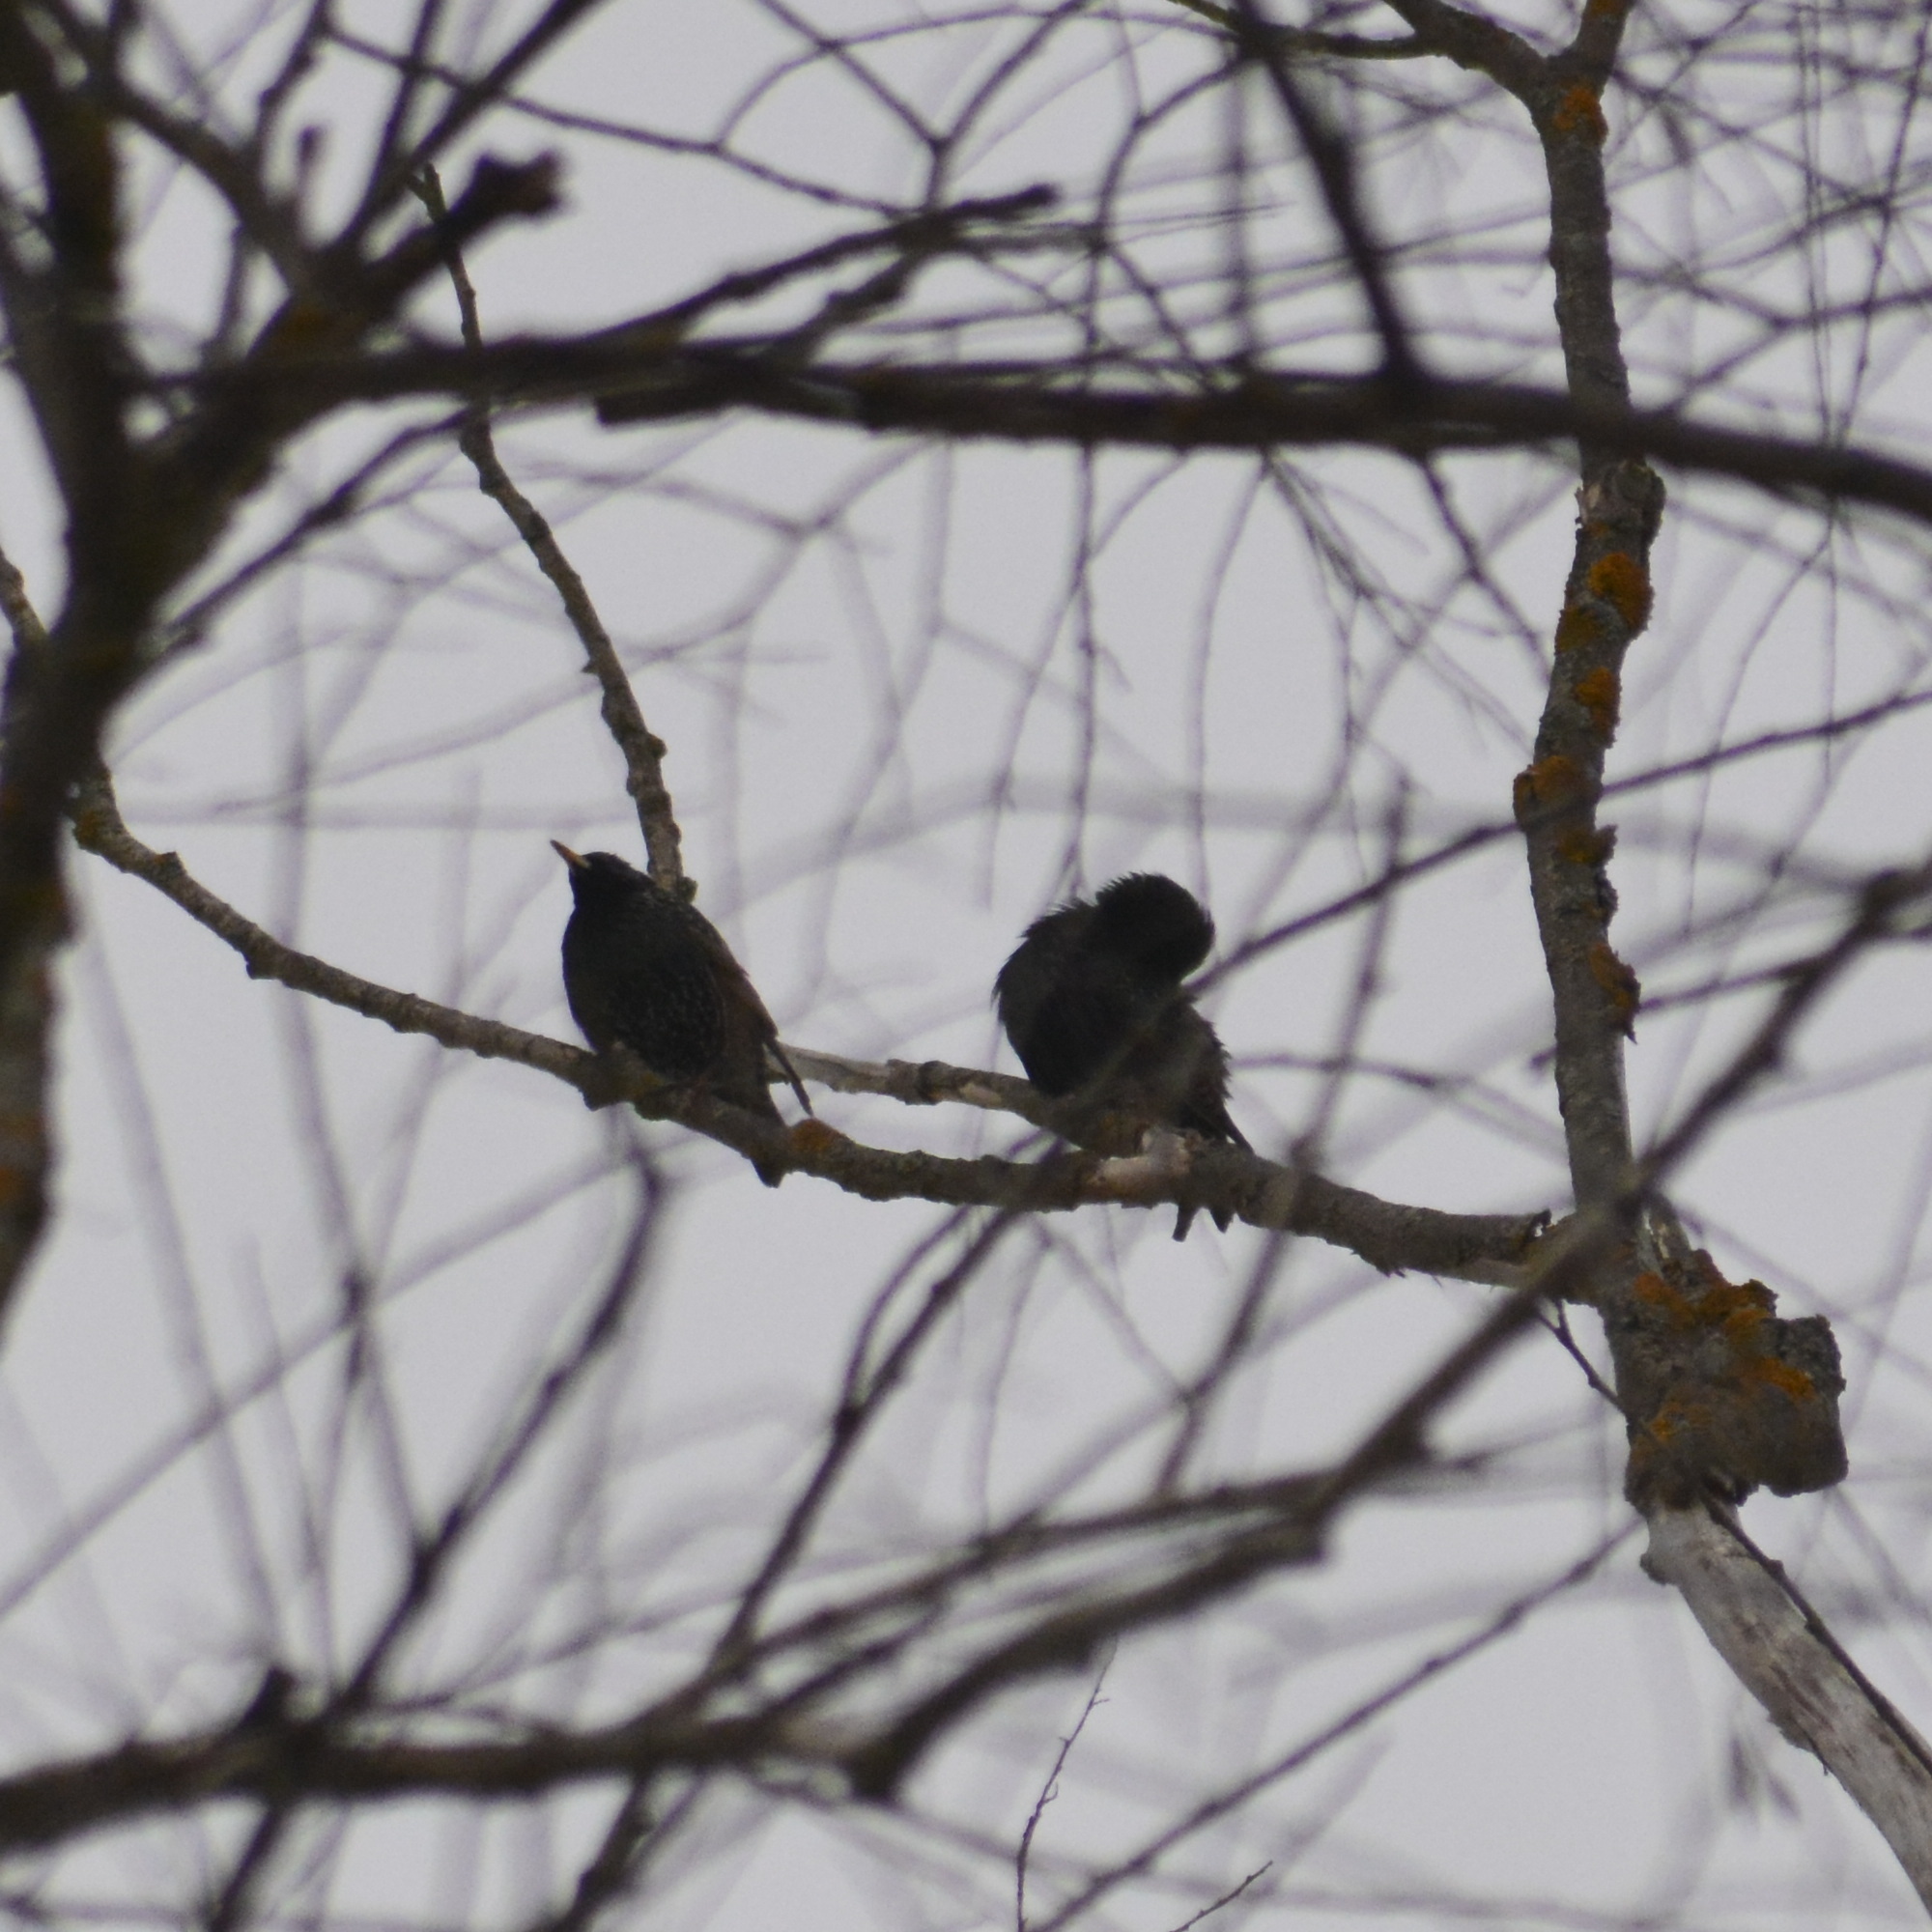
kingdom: Animalia
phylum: Chordata
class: Aves
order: Passeriformes
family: Sturnidae
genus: Sturnus
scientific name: Sturnus vulgaris
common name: Common starling
